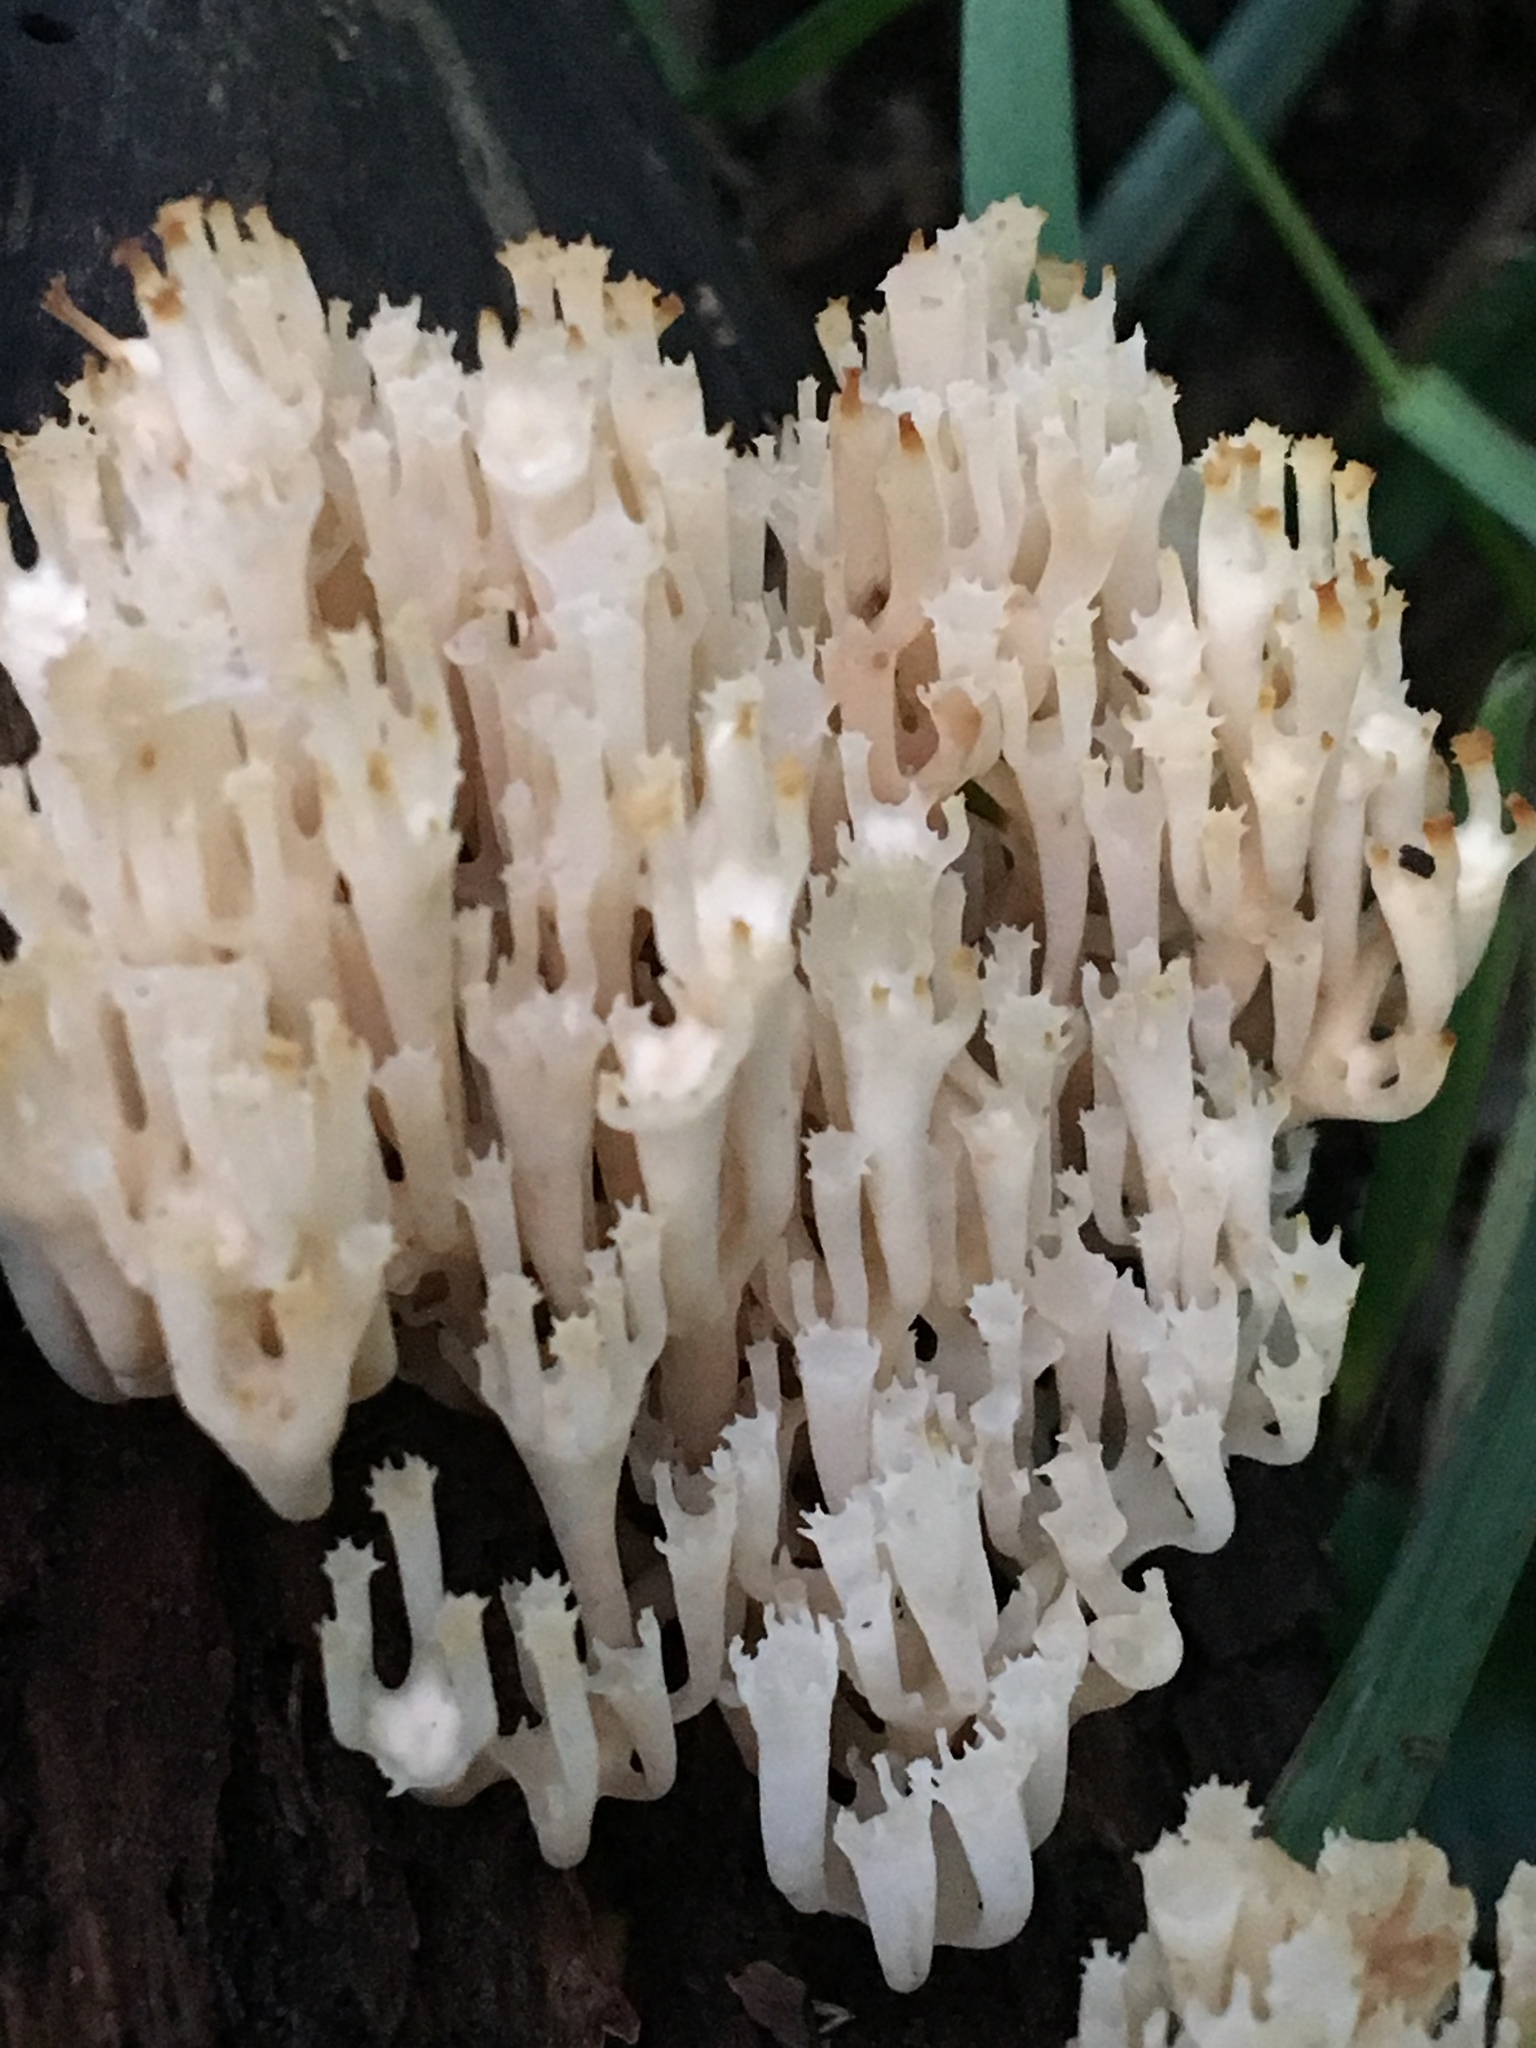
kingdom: Fungi
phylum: Basidiomycota
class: Agaricomycetes
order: Russulales
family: Auriscalpiaceae
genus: Artomyces
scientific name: Artomyces pyxidatus
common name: Crown-tipped coral fungus
